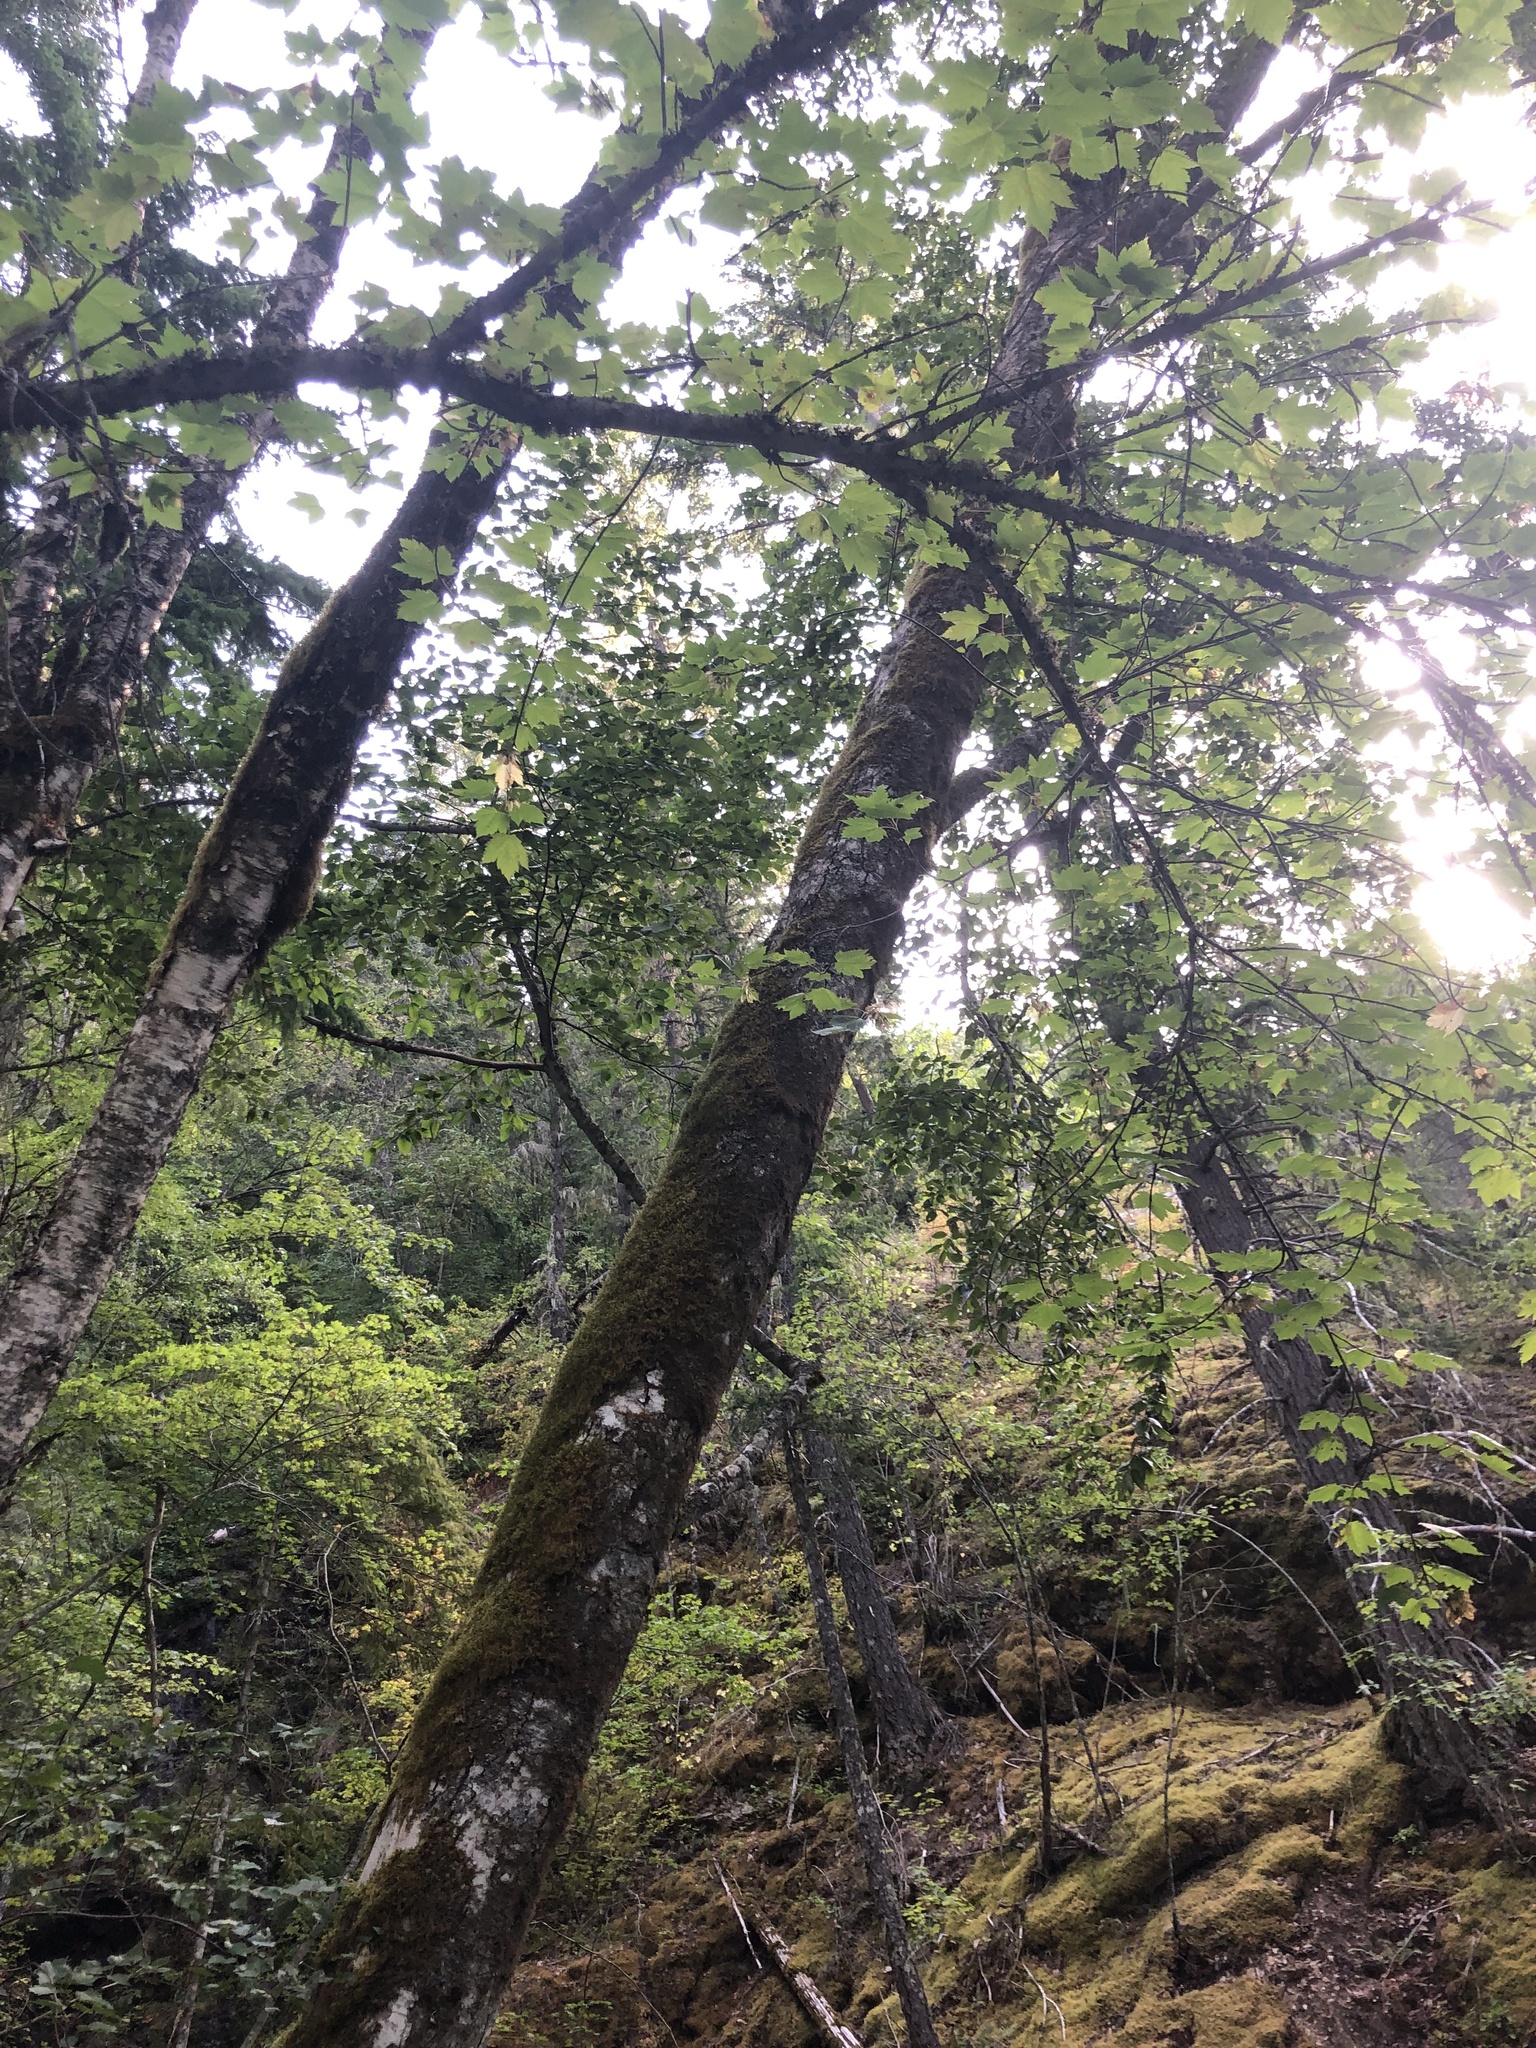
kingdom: Plantae
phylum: Tracheophyta
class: Magnoliopsida
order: Sapindales
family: Sapindaceae
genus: Acer
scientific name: Acer glabrum
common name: Rocky mountain maple
